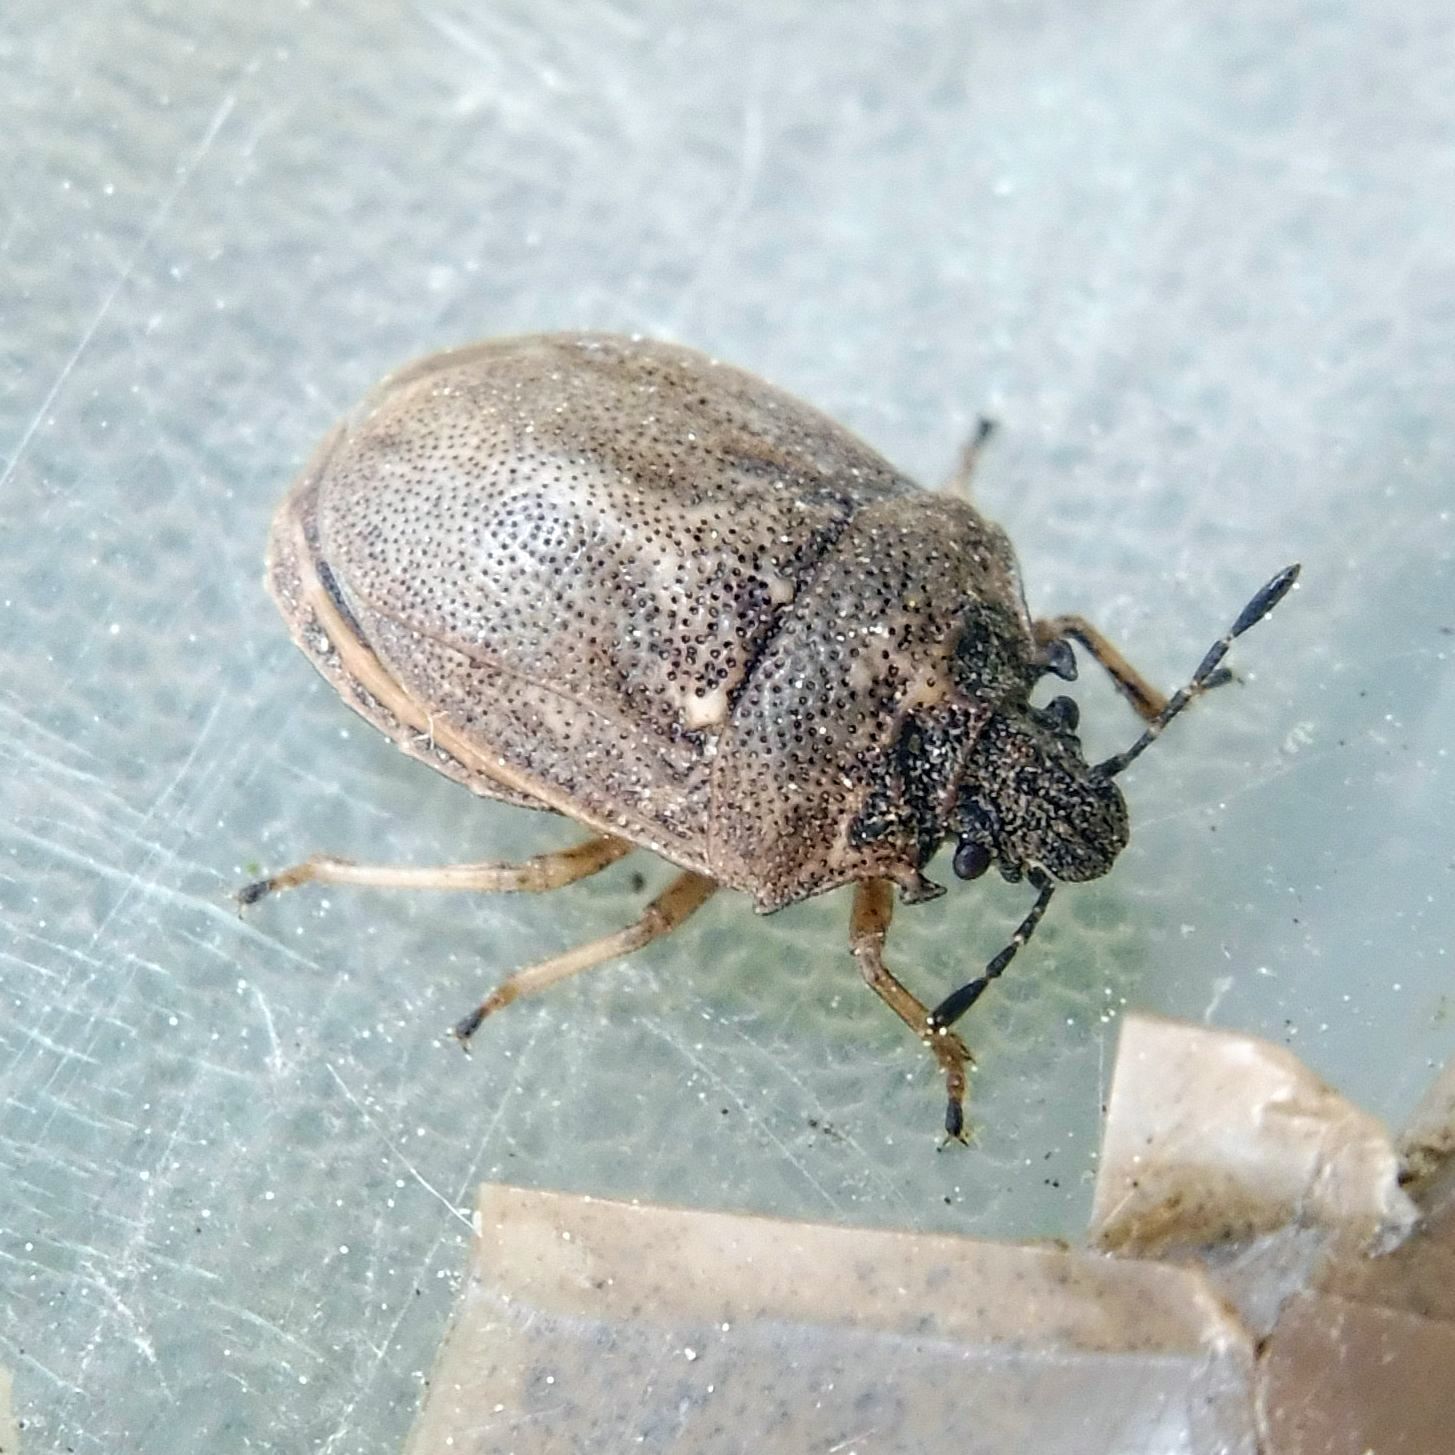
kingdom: Animalia
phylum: Arthropoda
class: Insecta
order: Hemiptera
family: Pentatomidae
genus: Podops
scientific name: Podops inunctus
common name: Turtle bug
